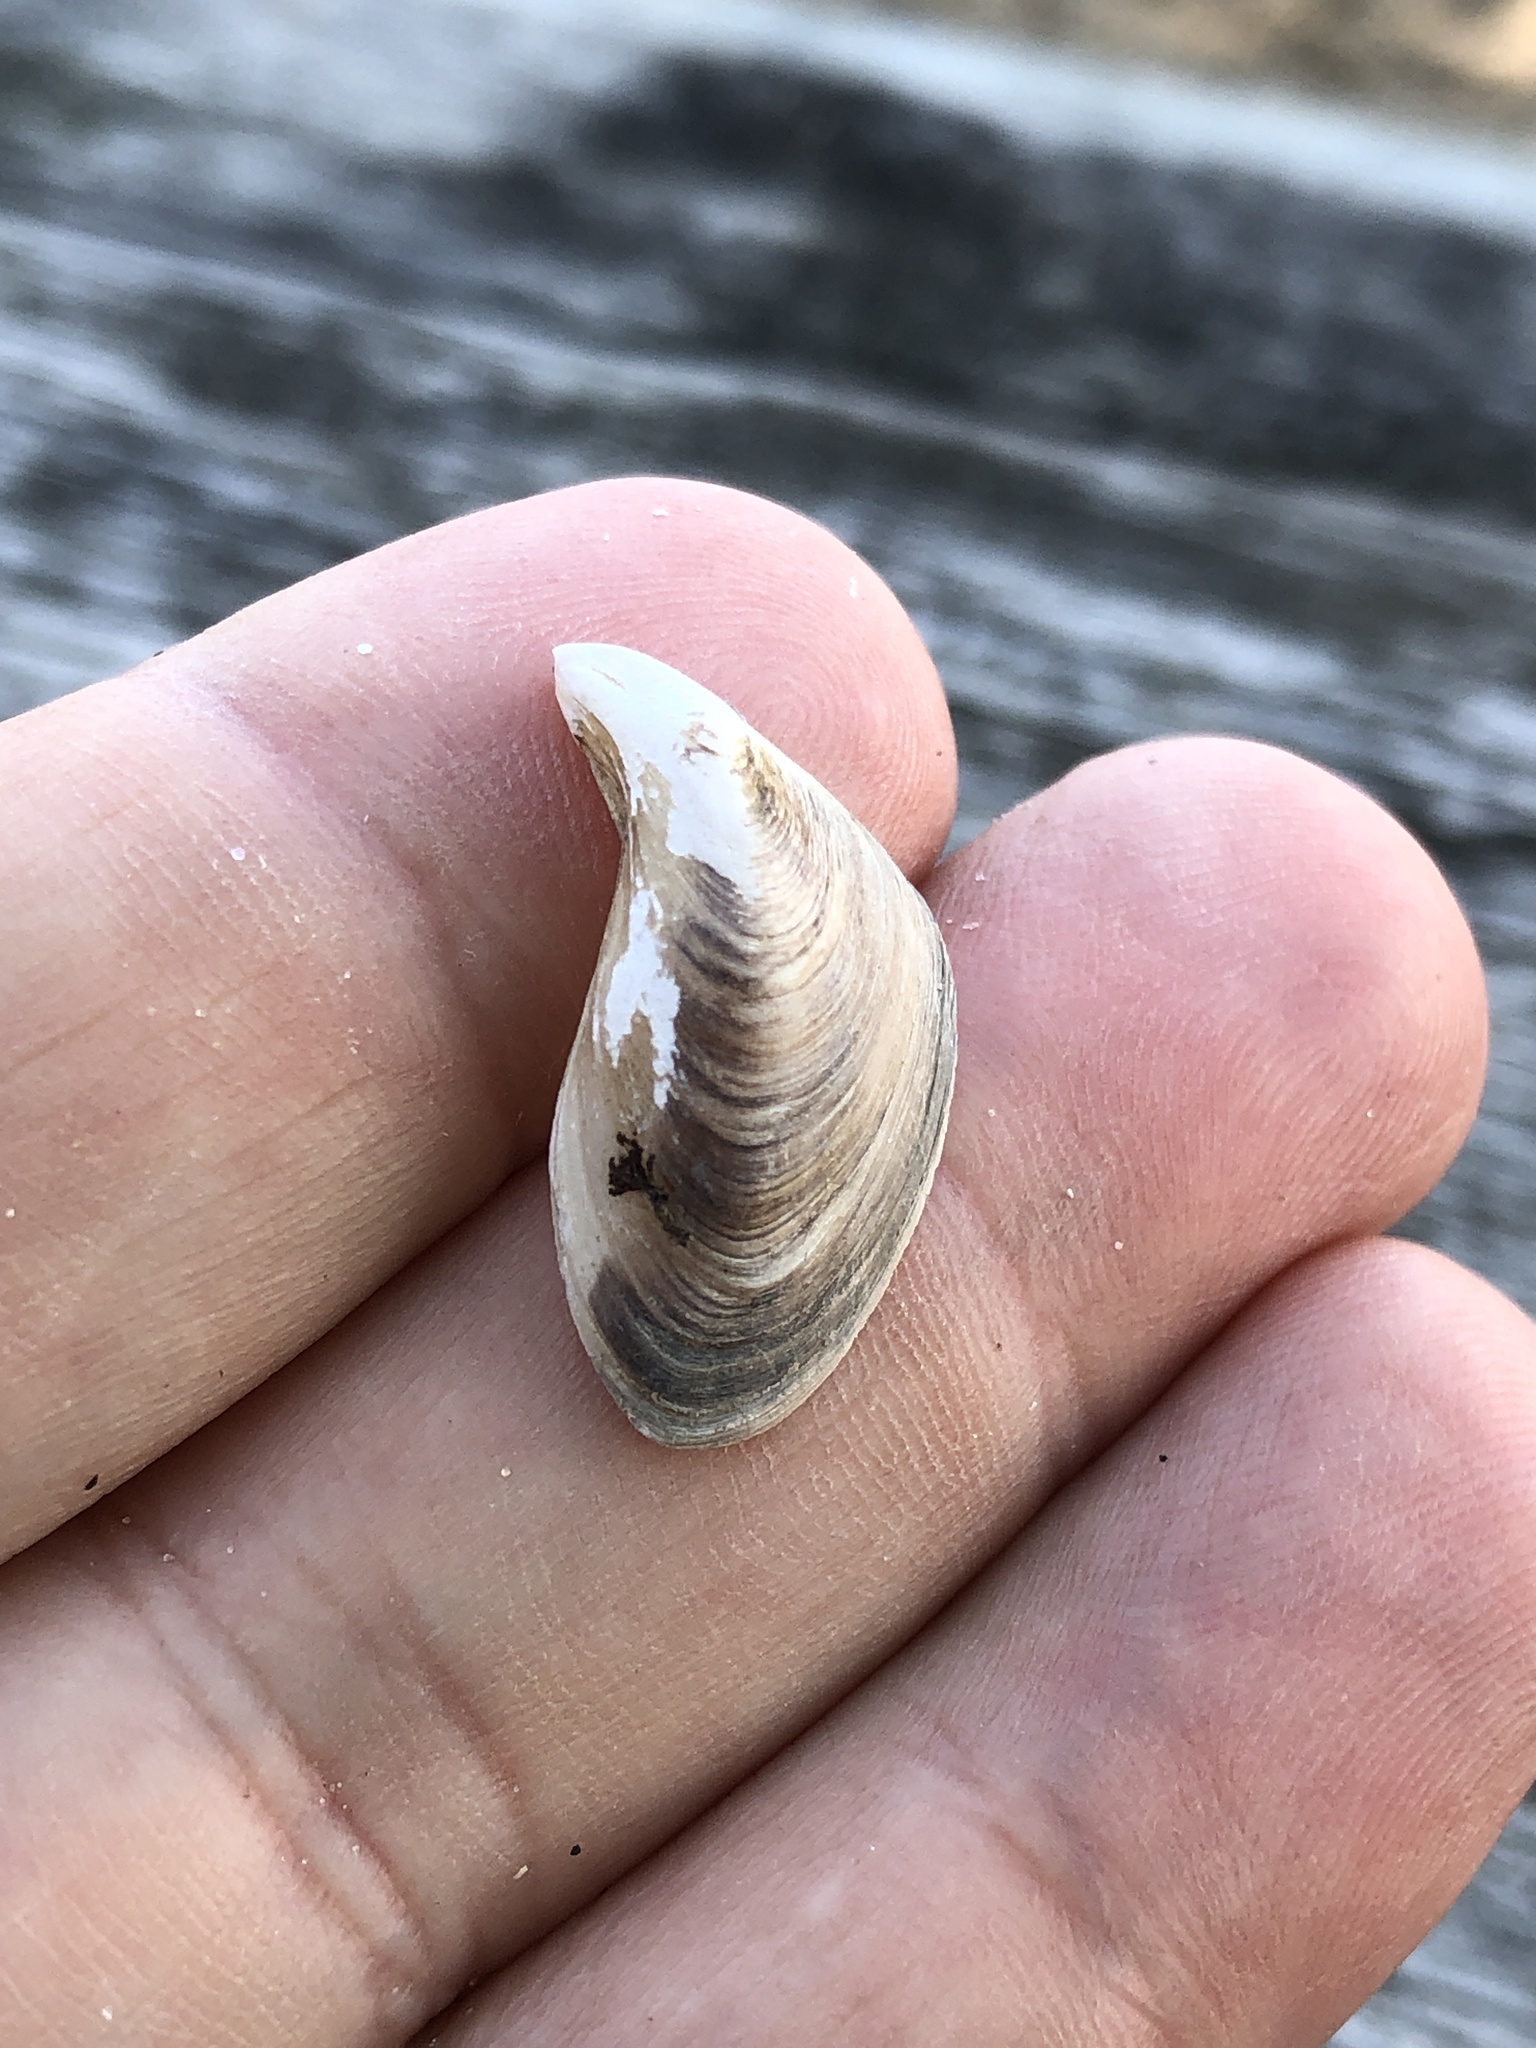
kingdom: Animalia
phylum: Mollusca
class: Bivalvia
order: Myida
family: Dreissenidae
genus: Dreissena
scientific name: Dreissena bugensis
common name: Quagga mussel
